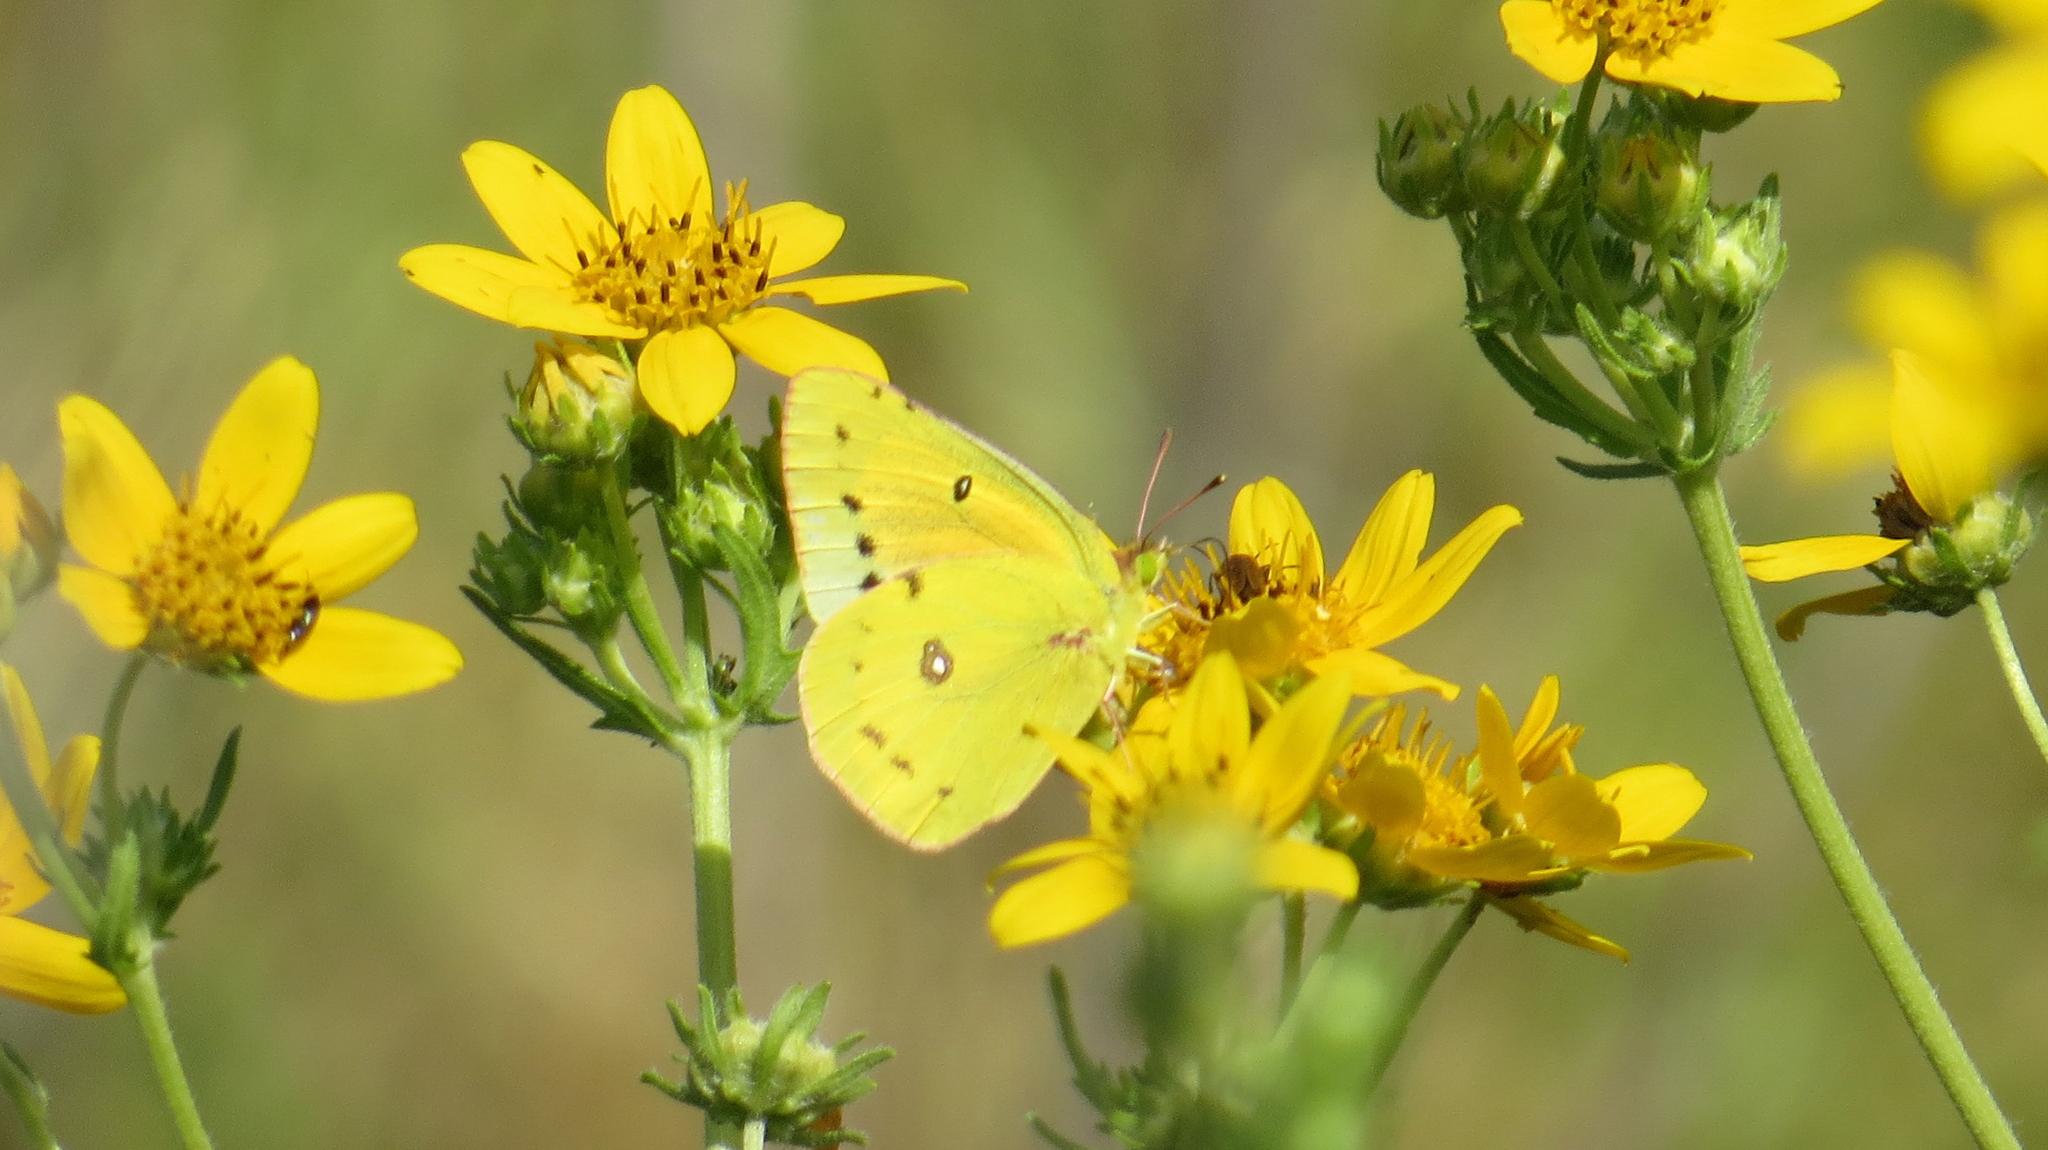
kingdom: Animalia
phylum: Arthropoda
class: Insecta
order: Lepidoptera
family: Pieridae
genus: Colias
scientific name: Colias eurytheme
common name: Alfalfa butterfly
